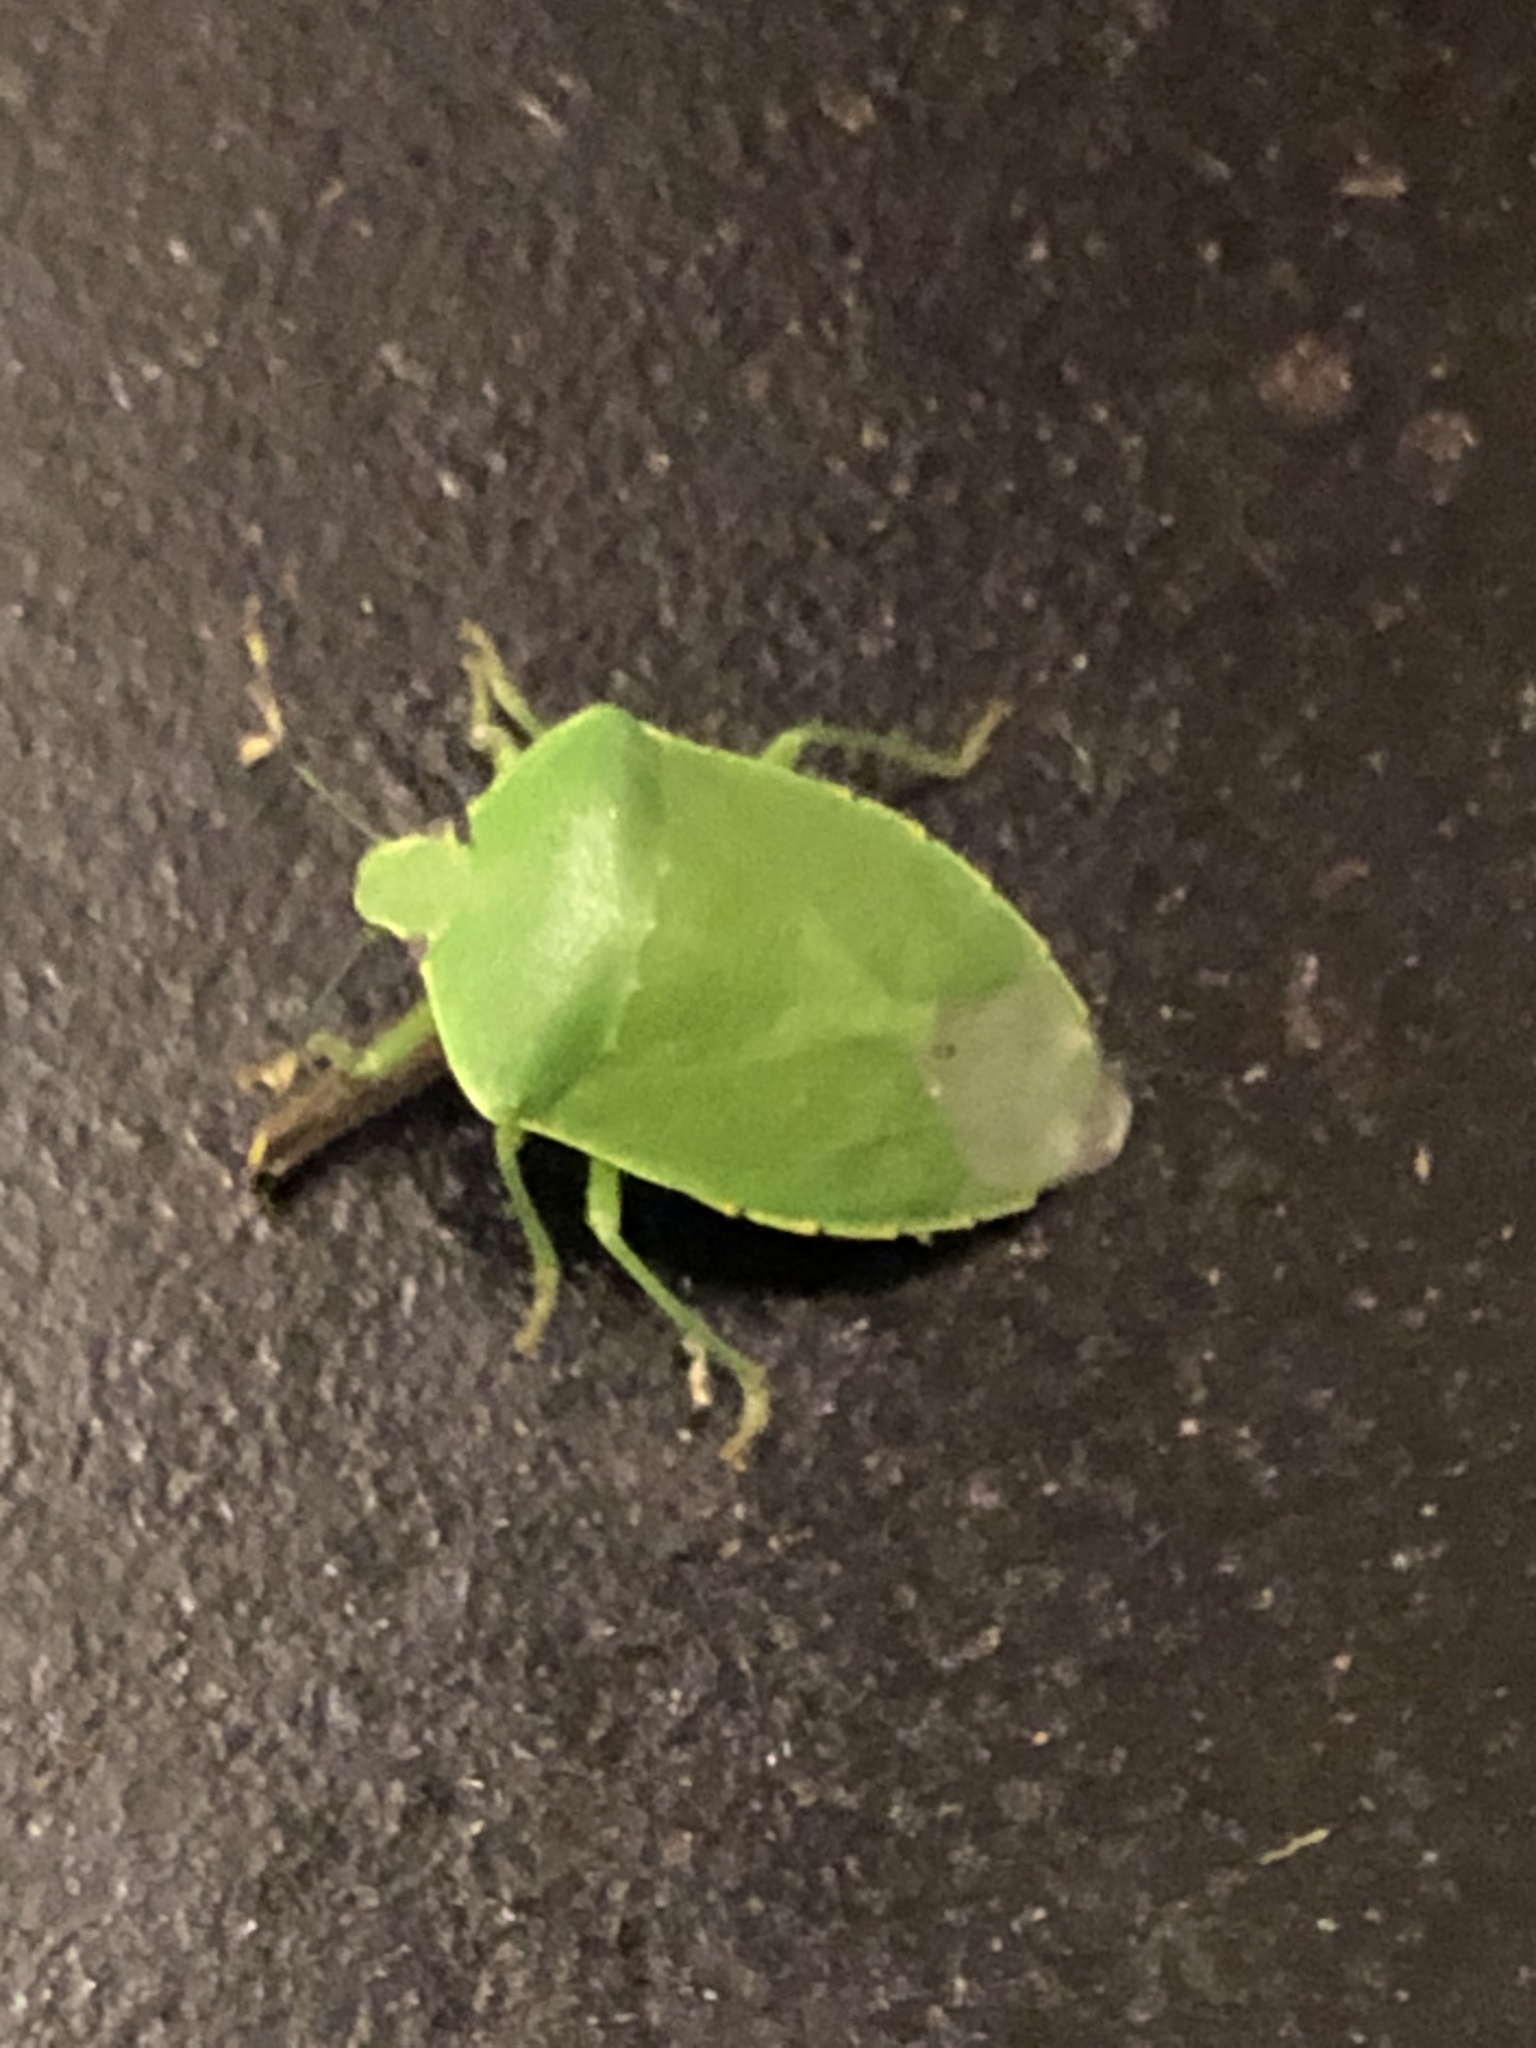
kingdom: Animalia
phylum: Arthropoda
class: Insecta
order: Hemiptera
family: Pentatomidae
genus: Chinavia
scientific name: Chinavia hilaris
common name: Green stink bug
